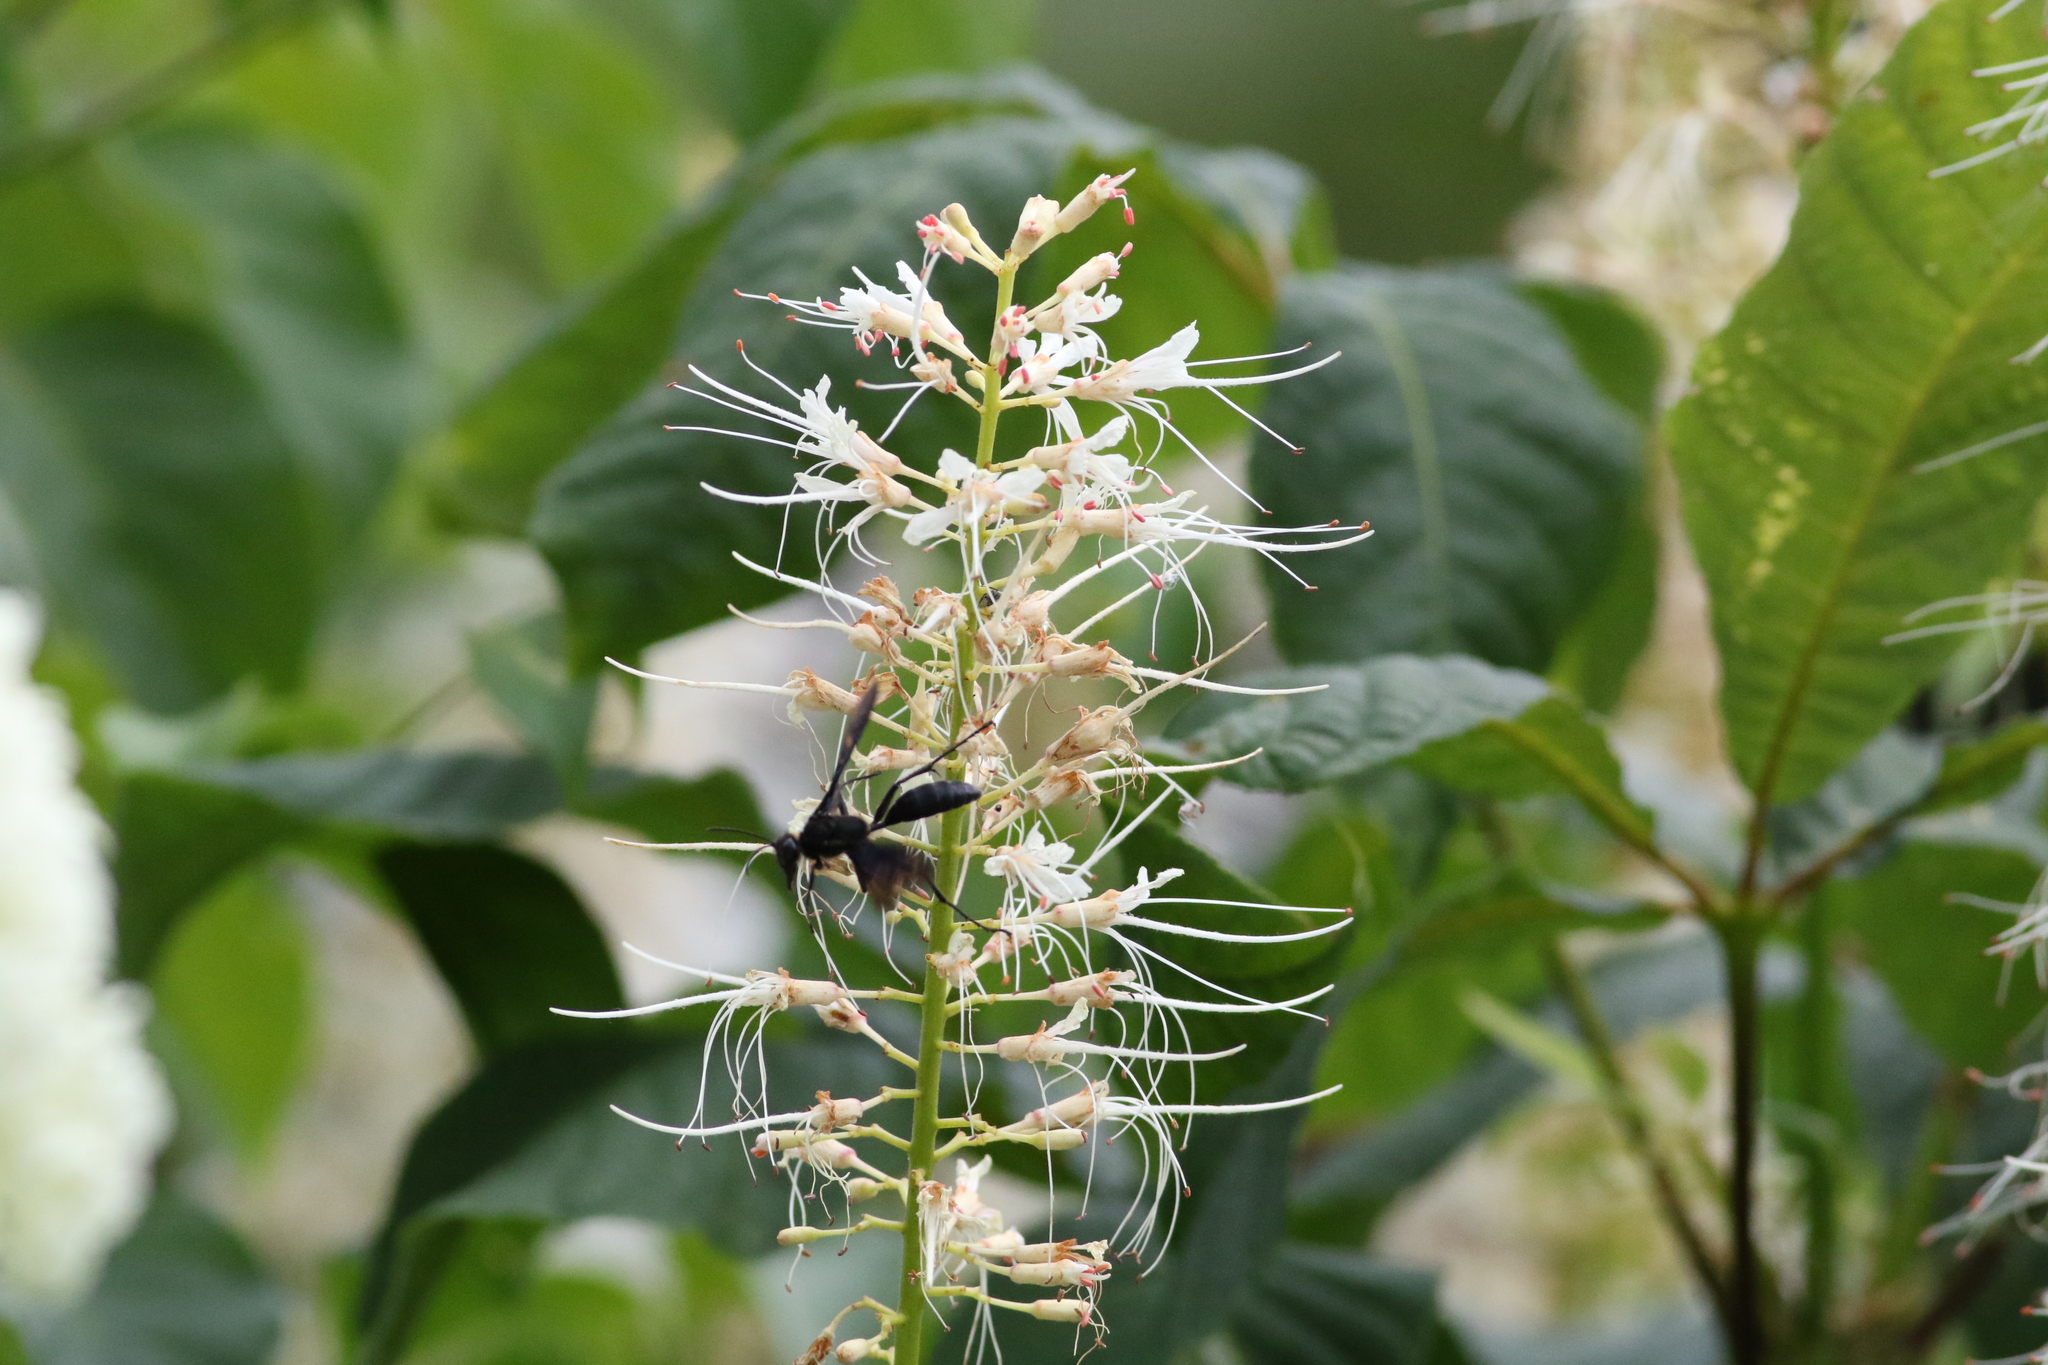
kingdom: Animalia
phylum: Arthropoda
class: Insecta
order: Hymenoptera
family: Sphecidae
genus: Sphex
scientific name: Sphex pensylvanicus
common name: Great black digger wasp
